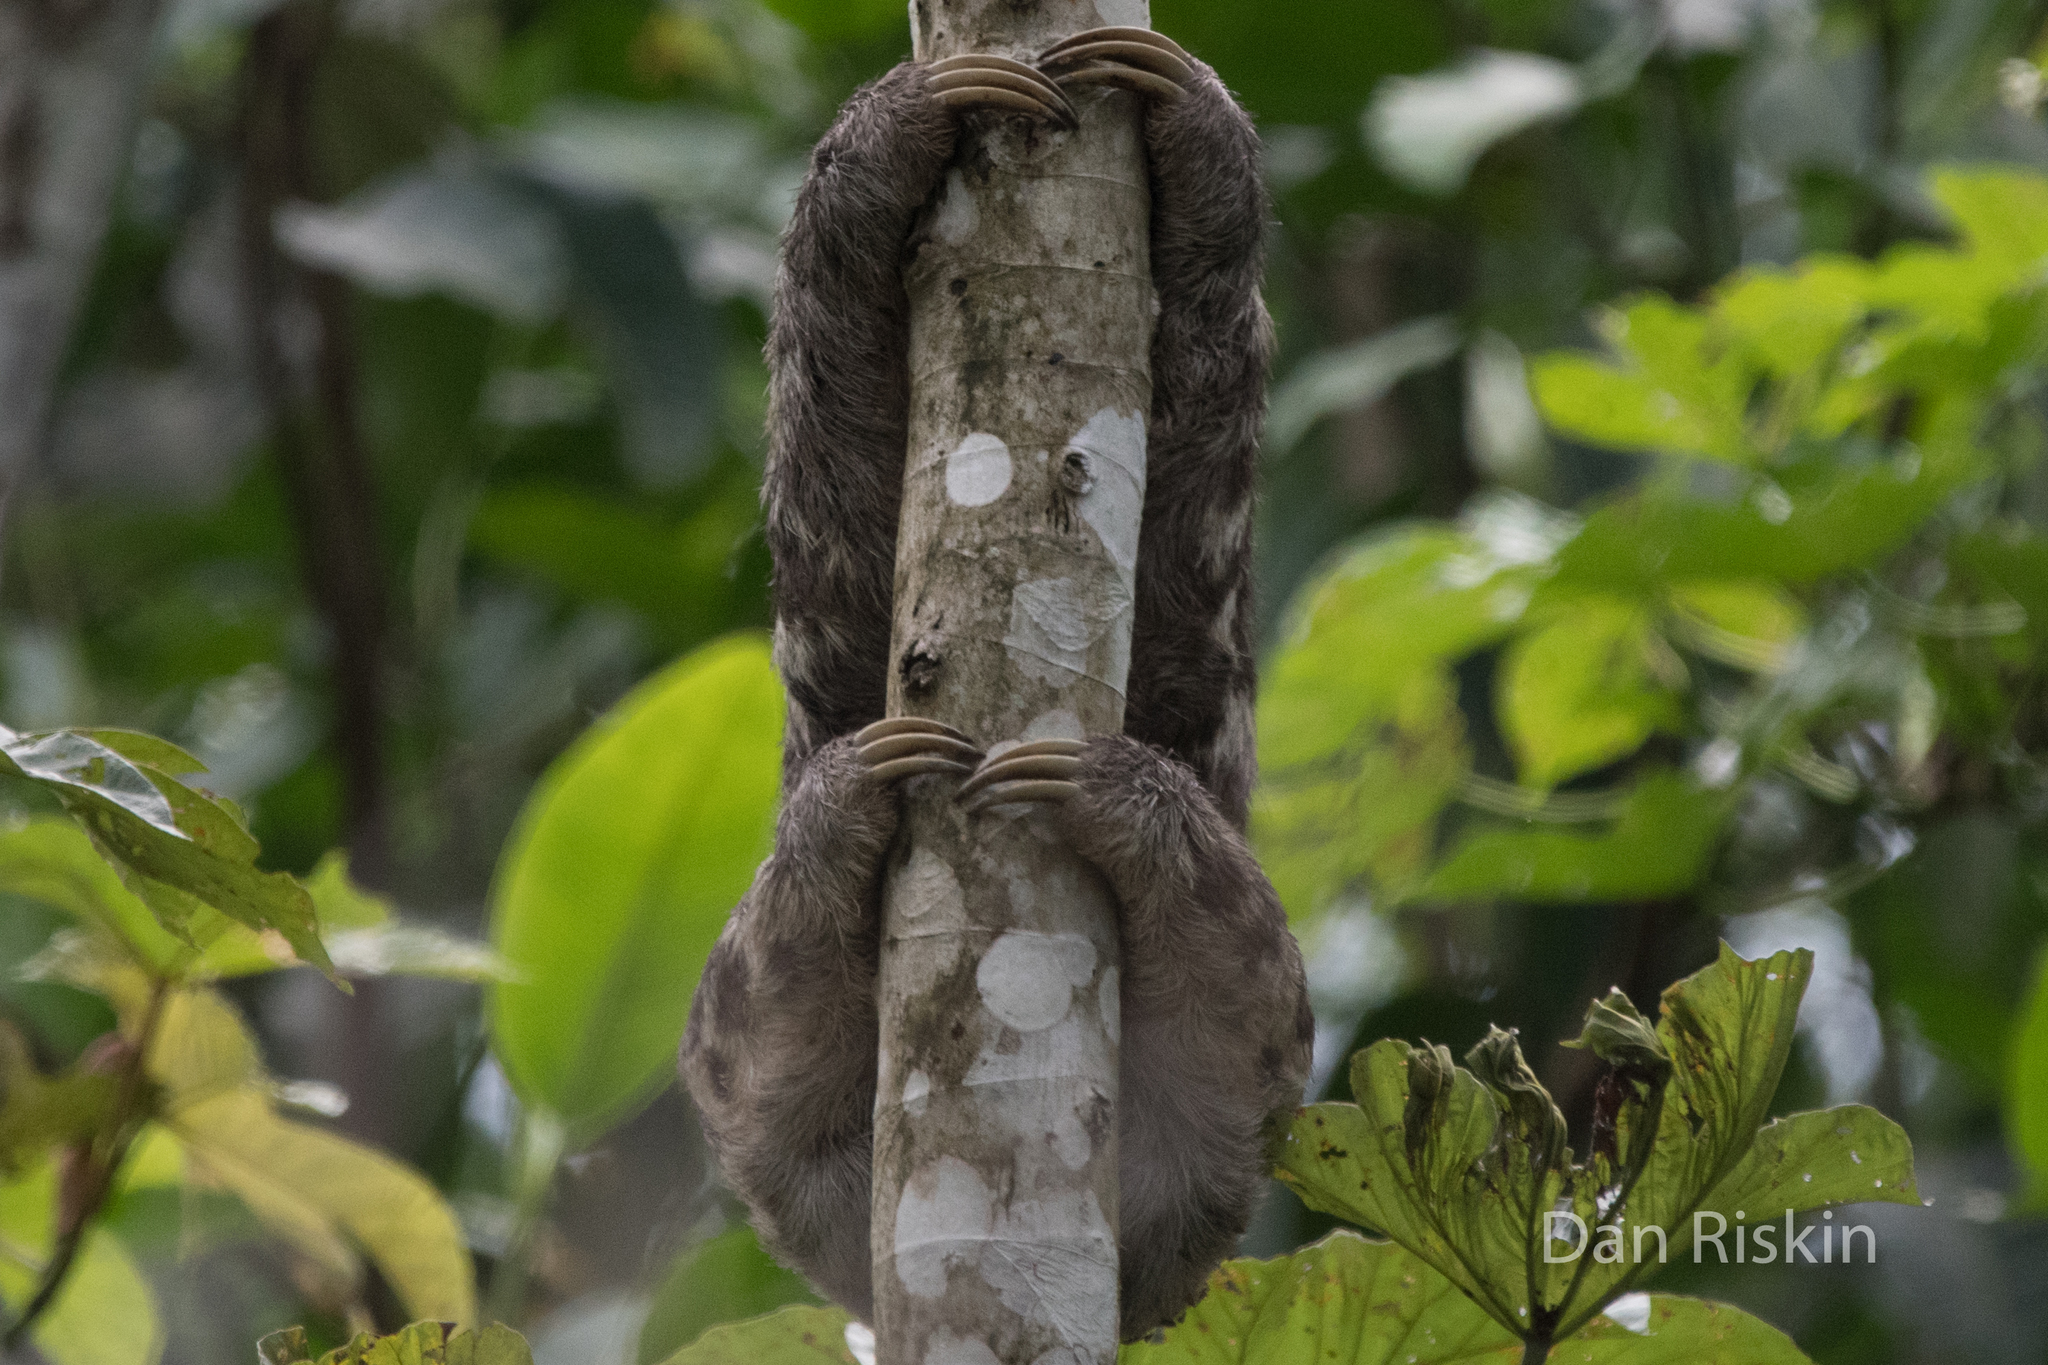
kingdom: Animalia
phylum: Chordata
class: Mammalia
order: Pilosa
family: Bradypodidae
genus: Bradypus
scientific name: Bradypus variegatus
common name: Brown-throated three-toed sloth
